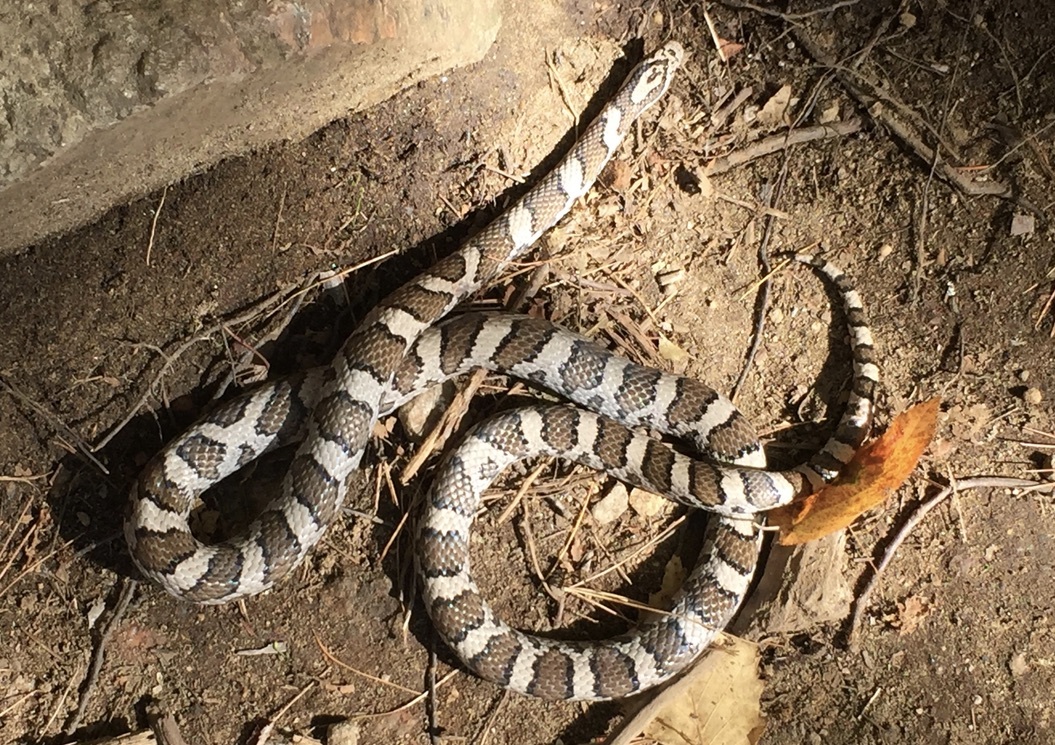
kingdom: Animalia
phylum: Chordata
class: Squamata
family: Colubridae
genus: Lampropeltis
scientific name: Lampropeltis triangulum
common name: Eastern milksnake
